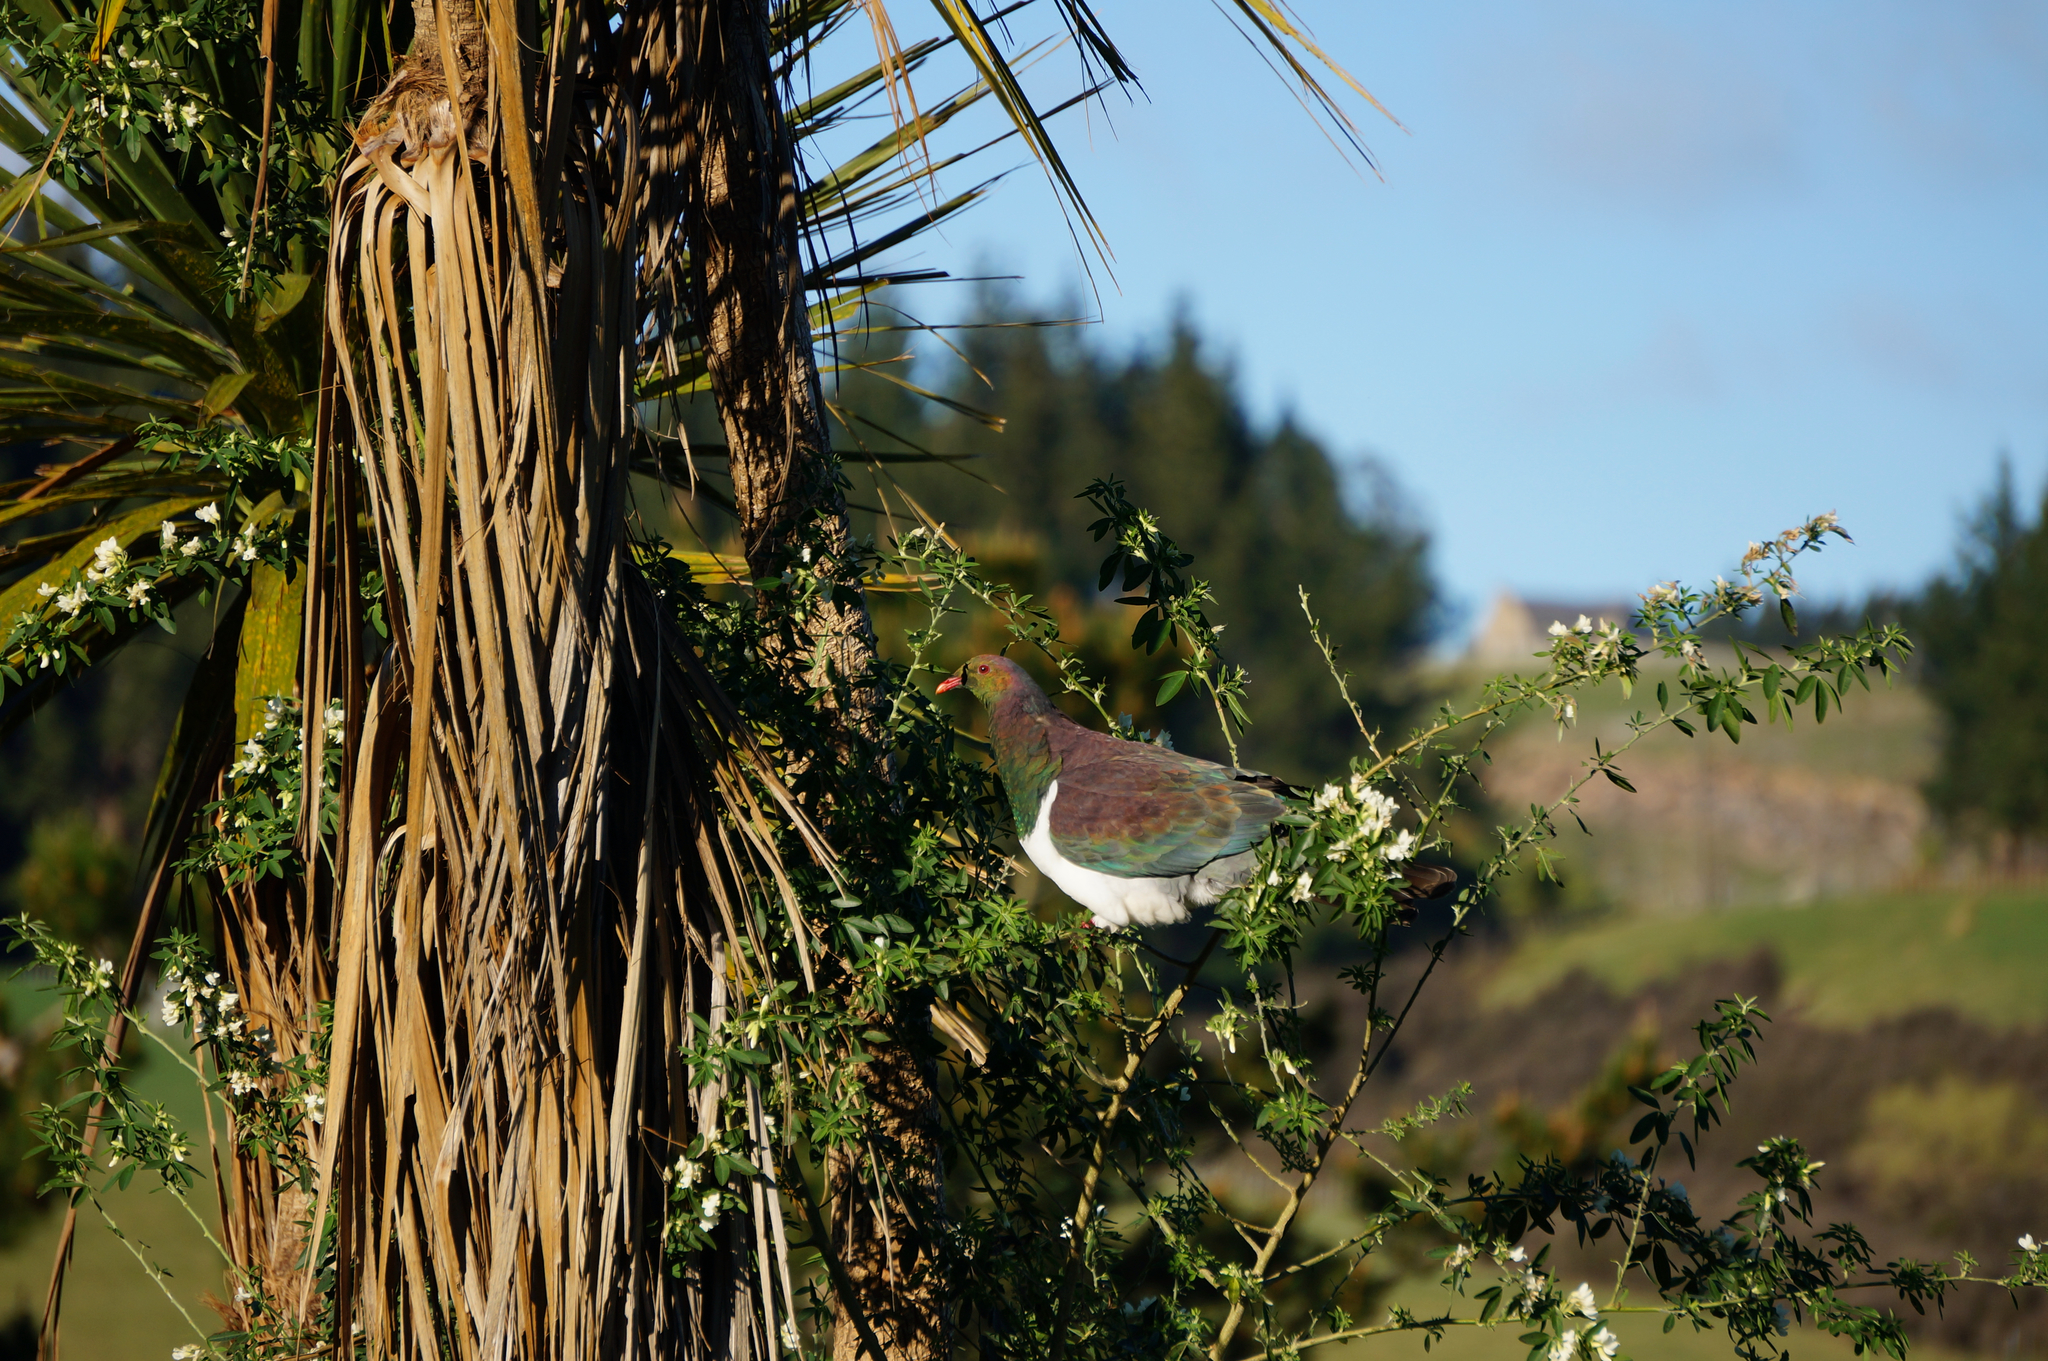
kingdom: Plantae
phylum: Tracheophyta
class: Magnoliopsida
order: Fabales
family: Fabaceae
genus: Chamaecytisus
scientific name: Chamaecytisus prolifer
